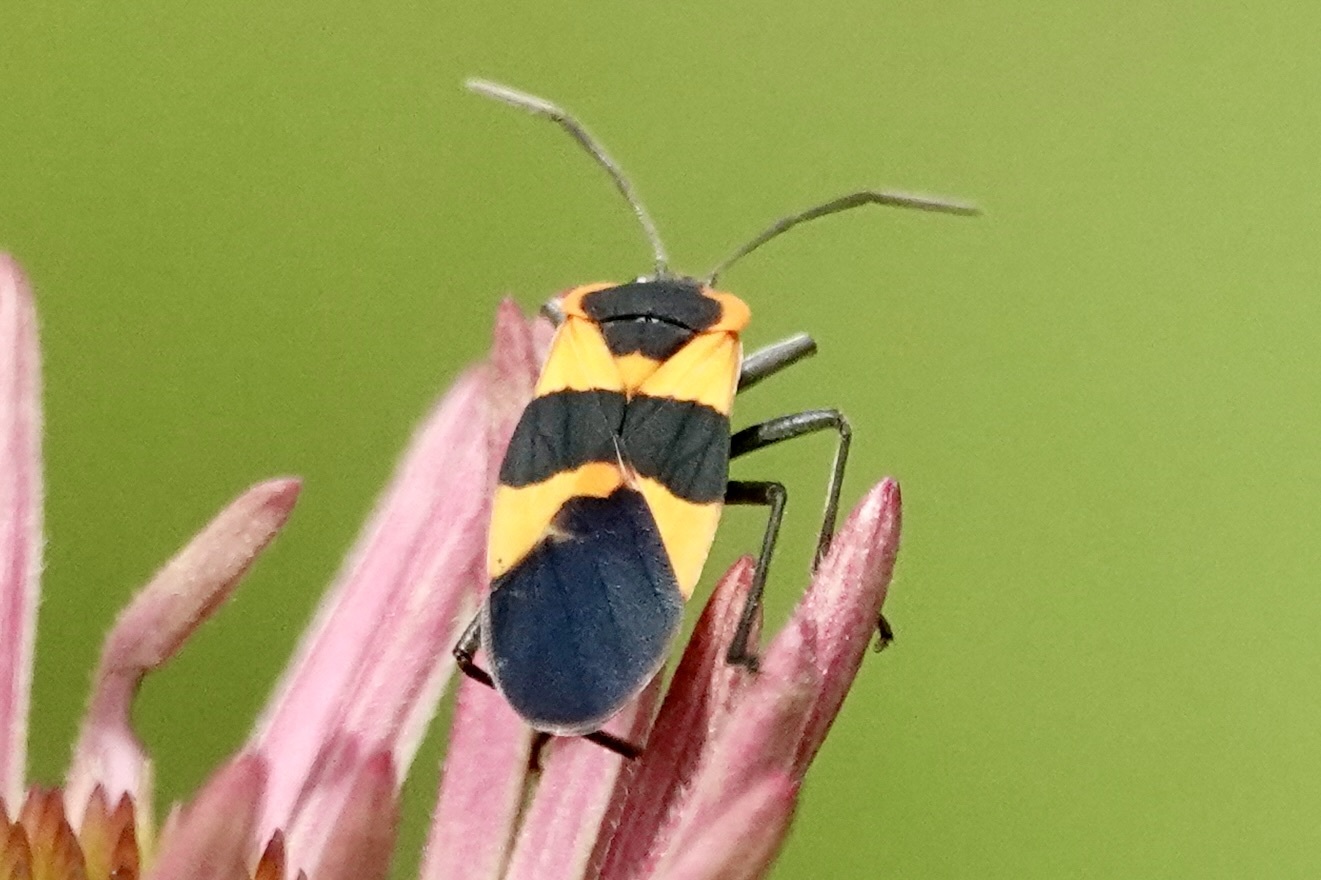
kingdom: Animalia
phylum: Arthropoda
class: Insecta
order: Hemiptera
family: Lygaeidae
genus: Oncopeltus
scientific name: Oncopeltus fasciatus
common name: Large milkweed bug
